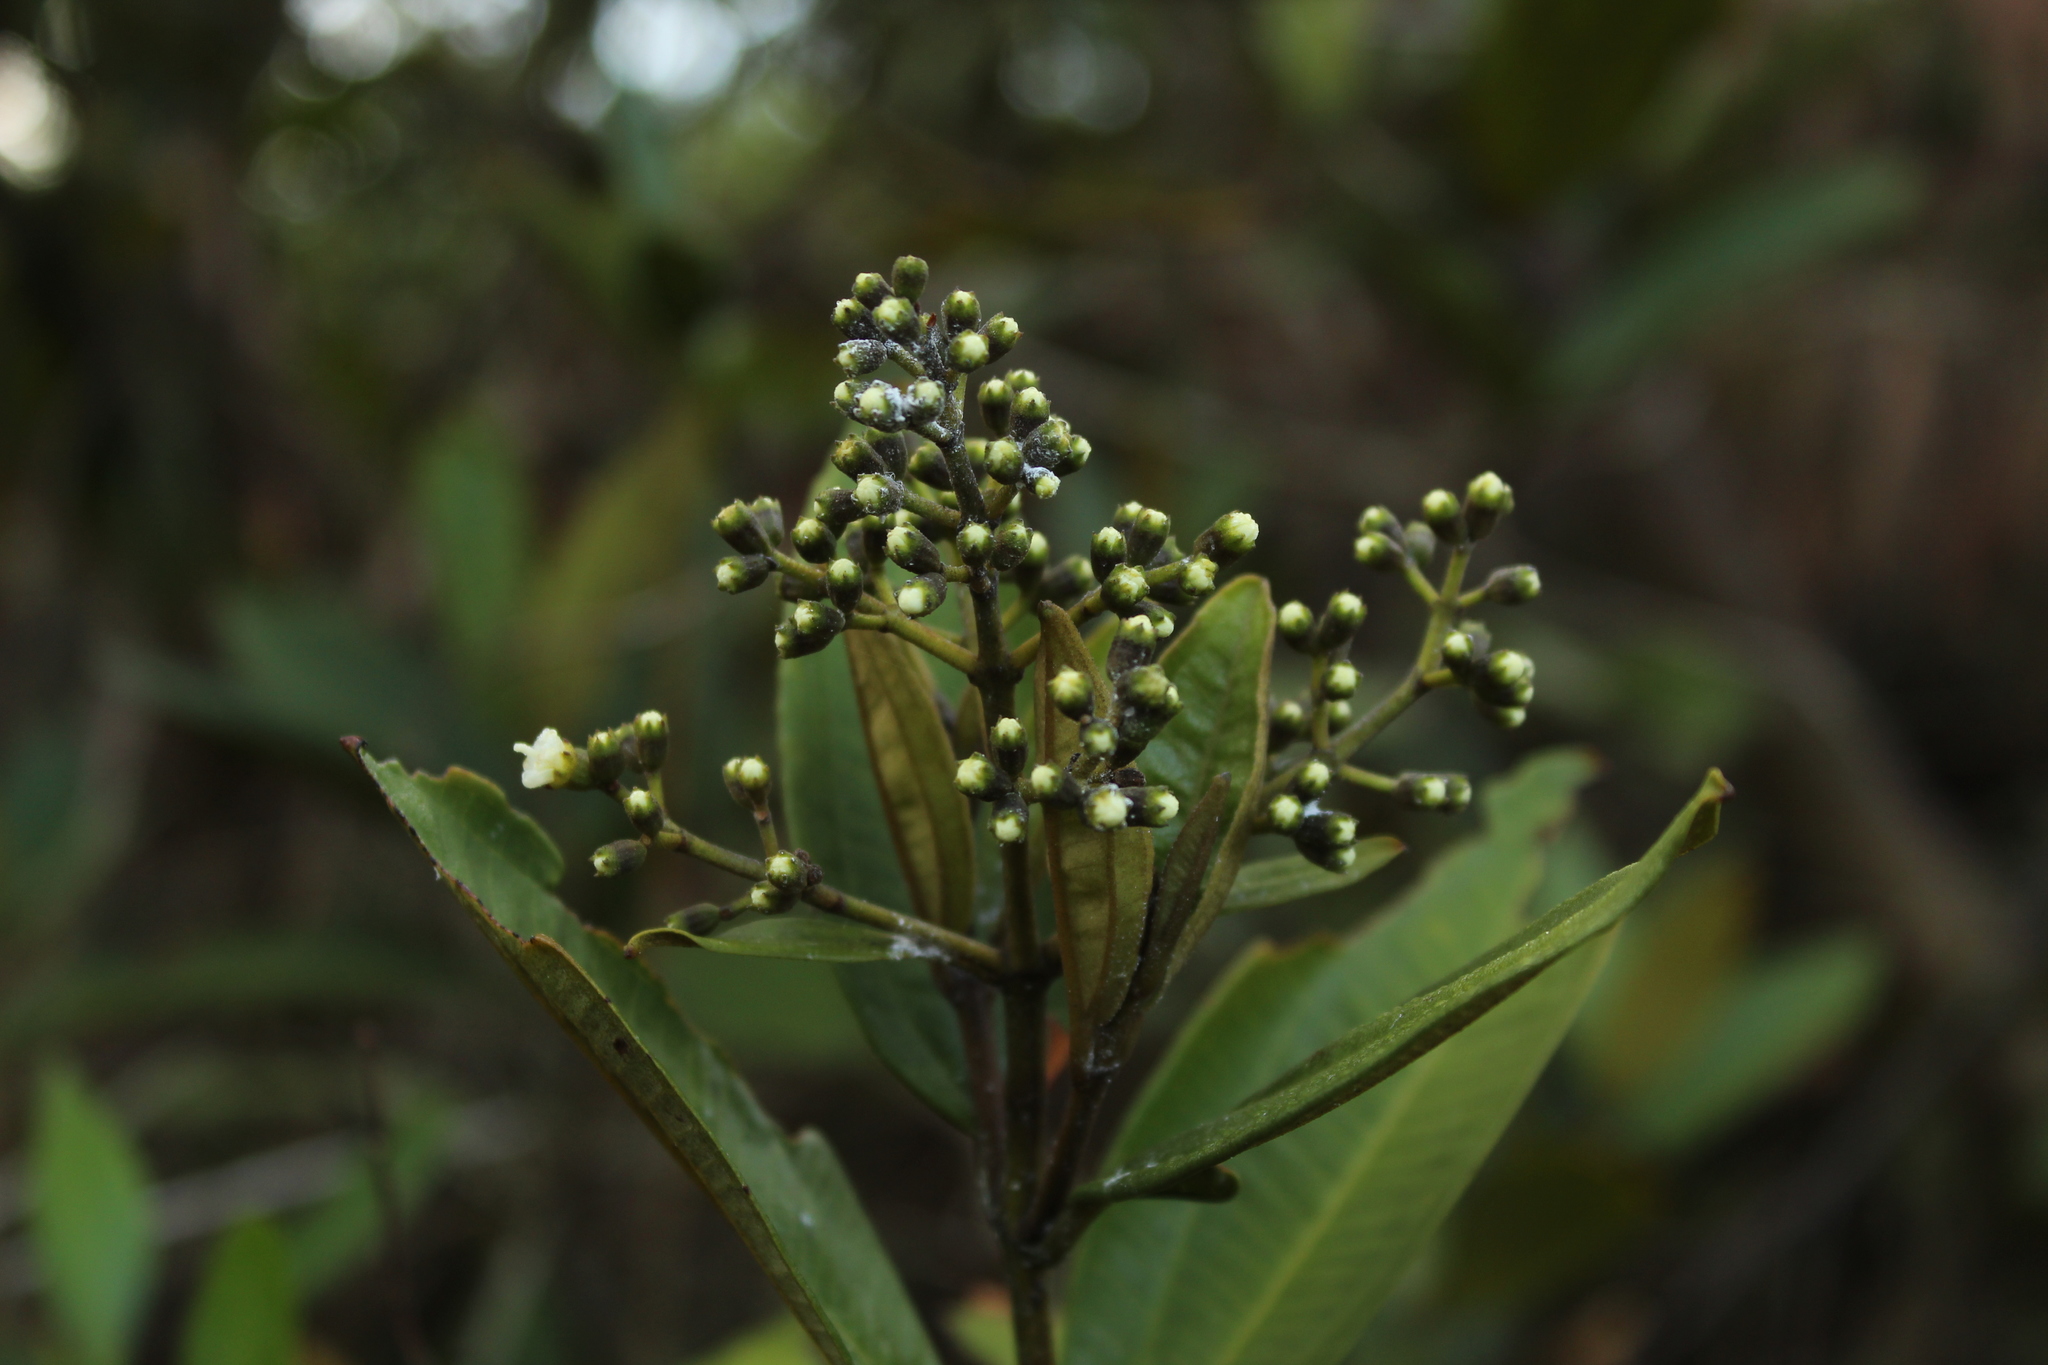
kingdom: Plantae
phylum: Tracheophyta
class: Magnoliopsida
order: Myrtales
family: Melastomataceae
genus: Miconia
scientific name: Miconia squamulosa
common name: Squamulose maya
